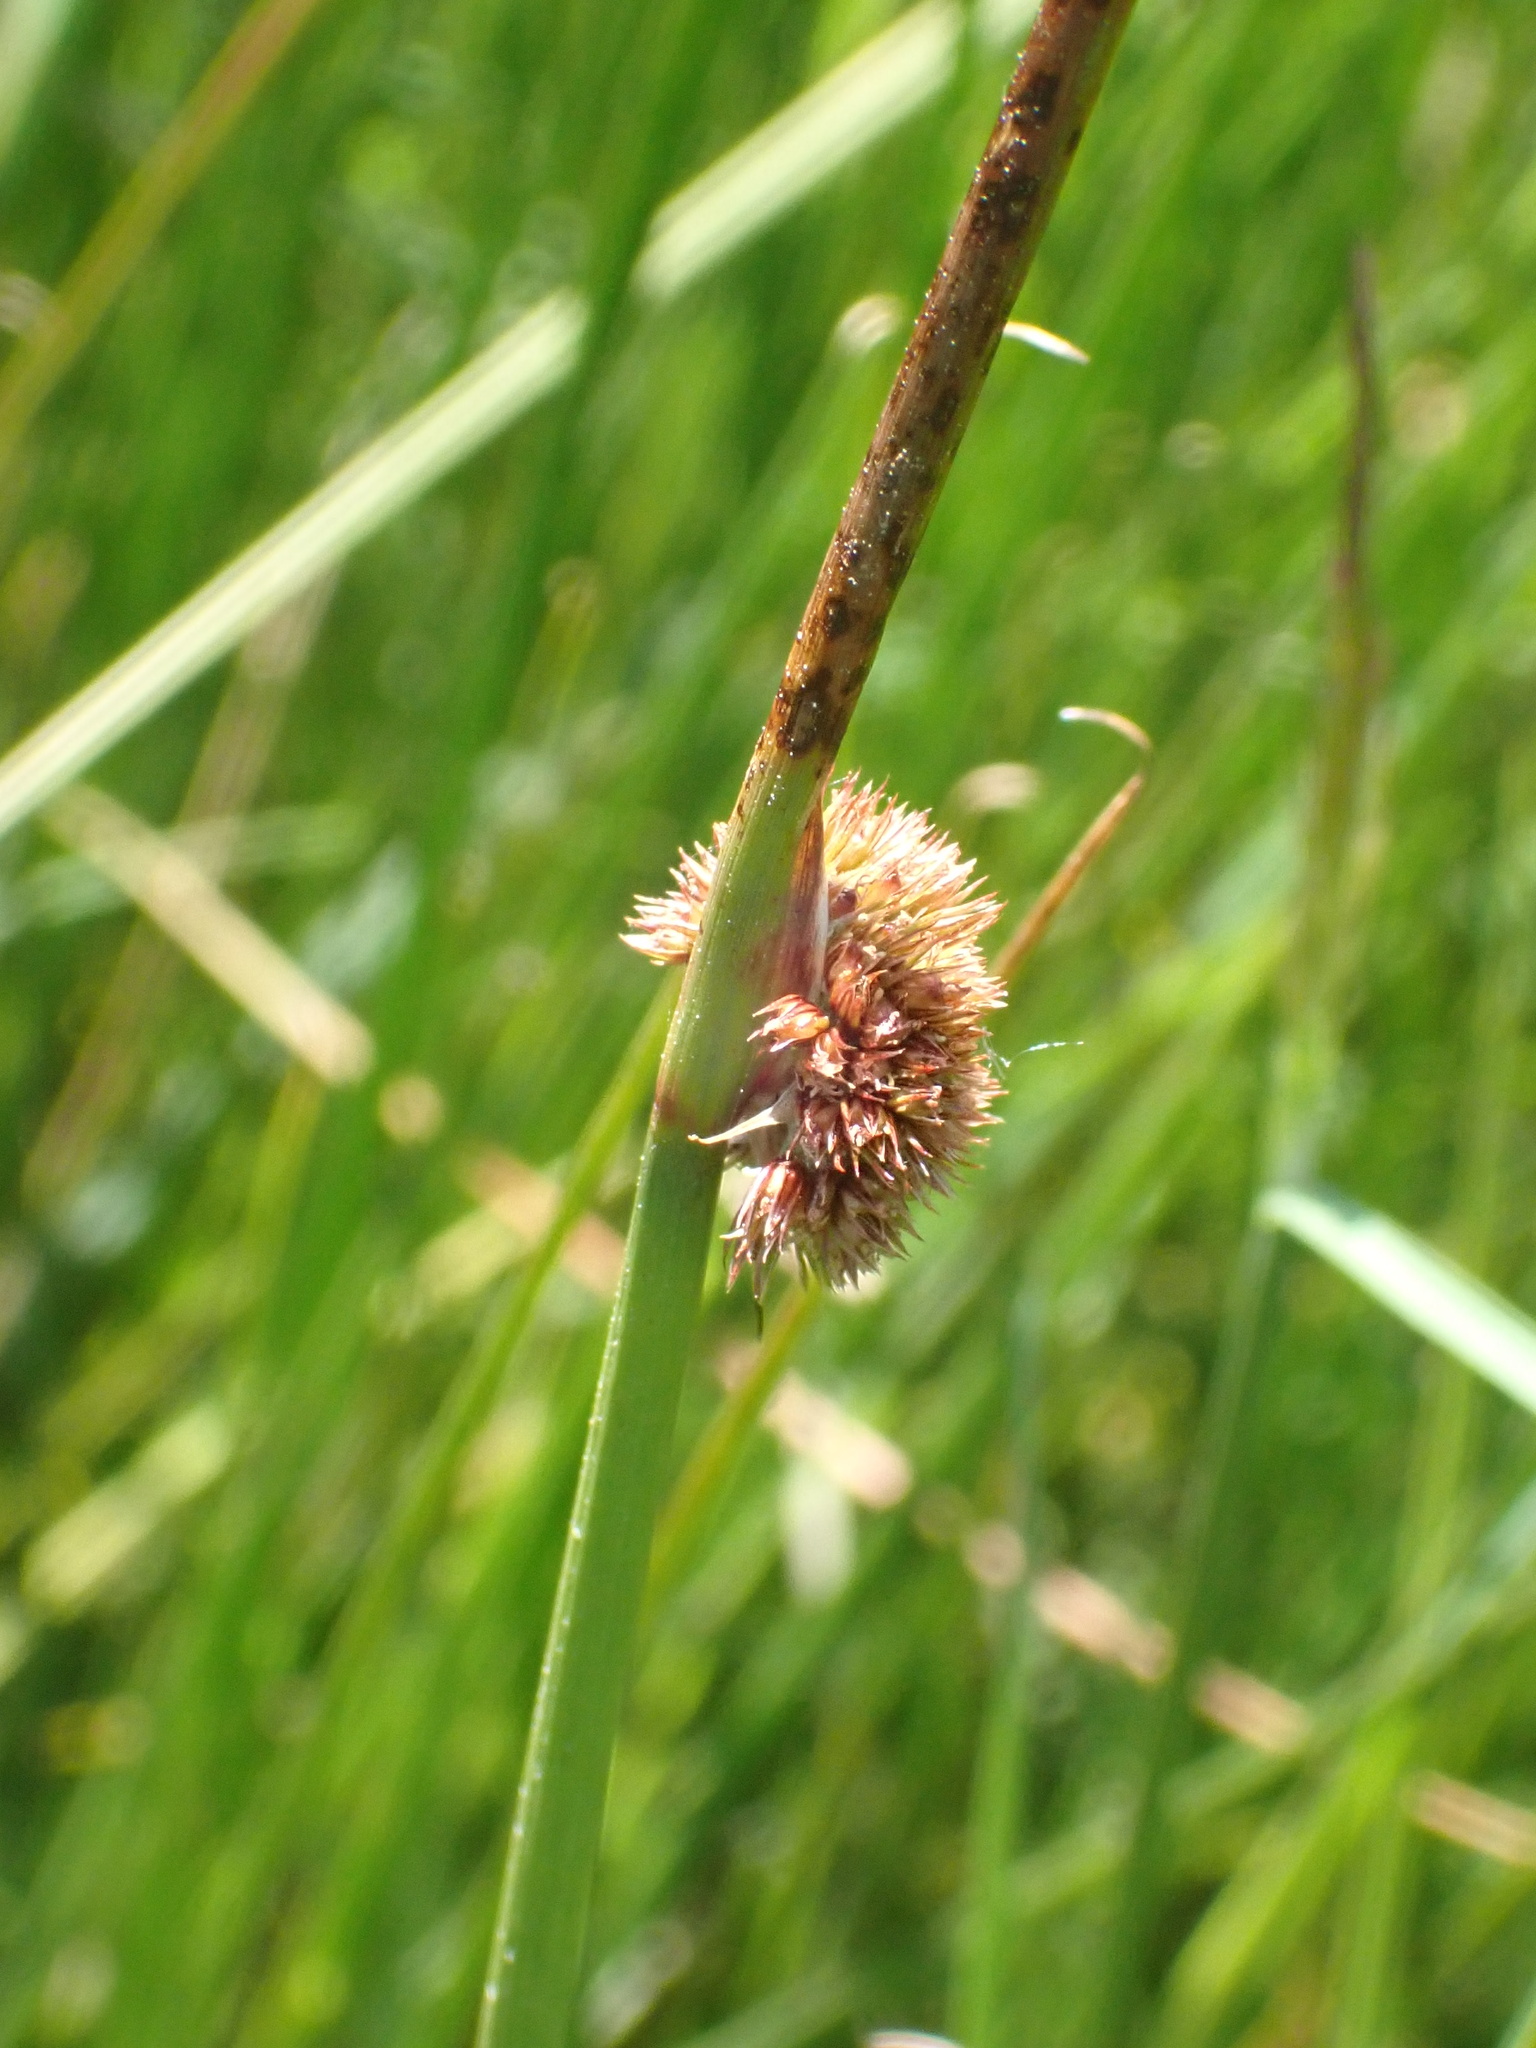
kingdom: Plantae
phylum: Tracheophyta
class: Liliopsida
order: Poales
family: Juncaceae
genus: Juncus
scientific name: Juncus conglomeratus
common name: Compact rush
